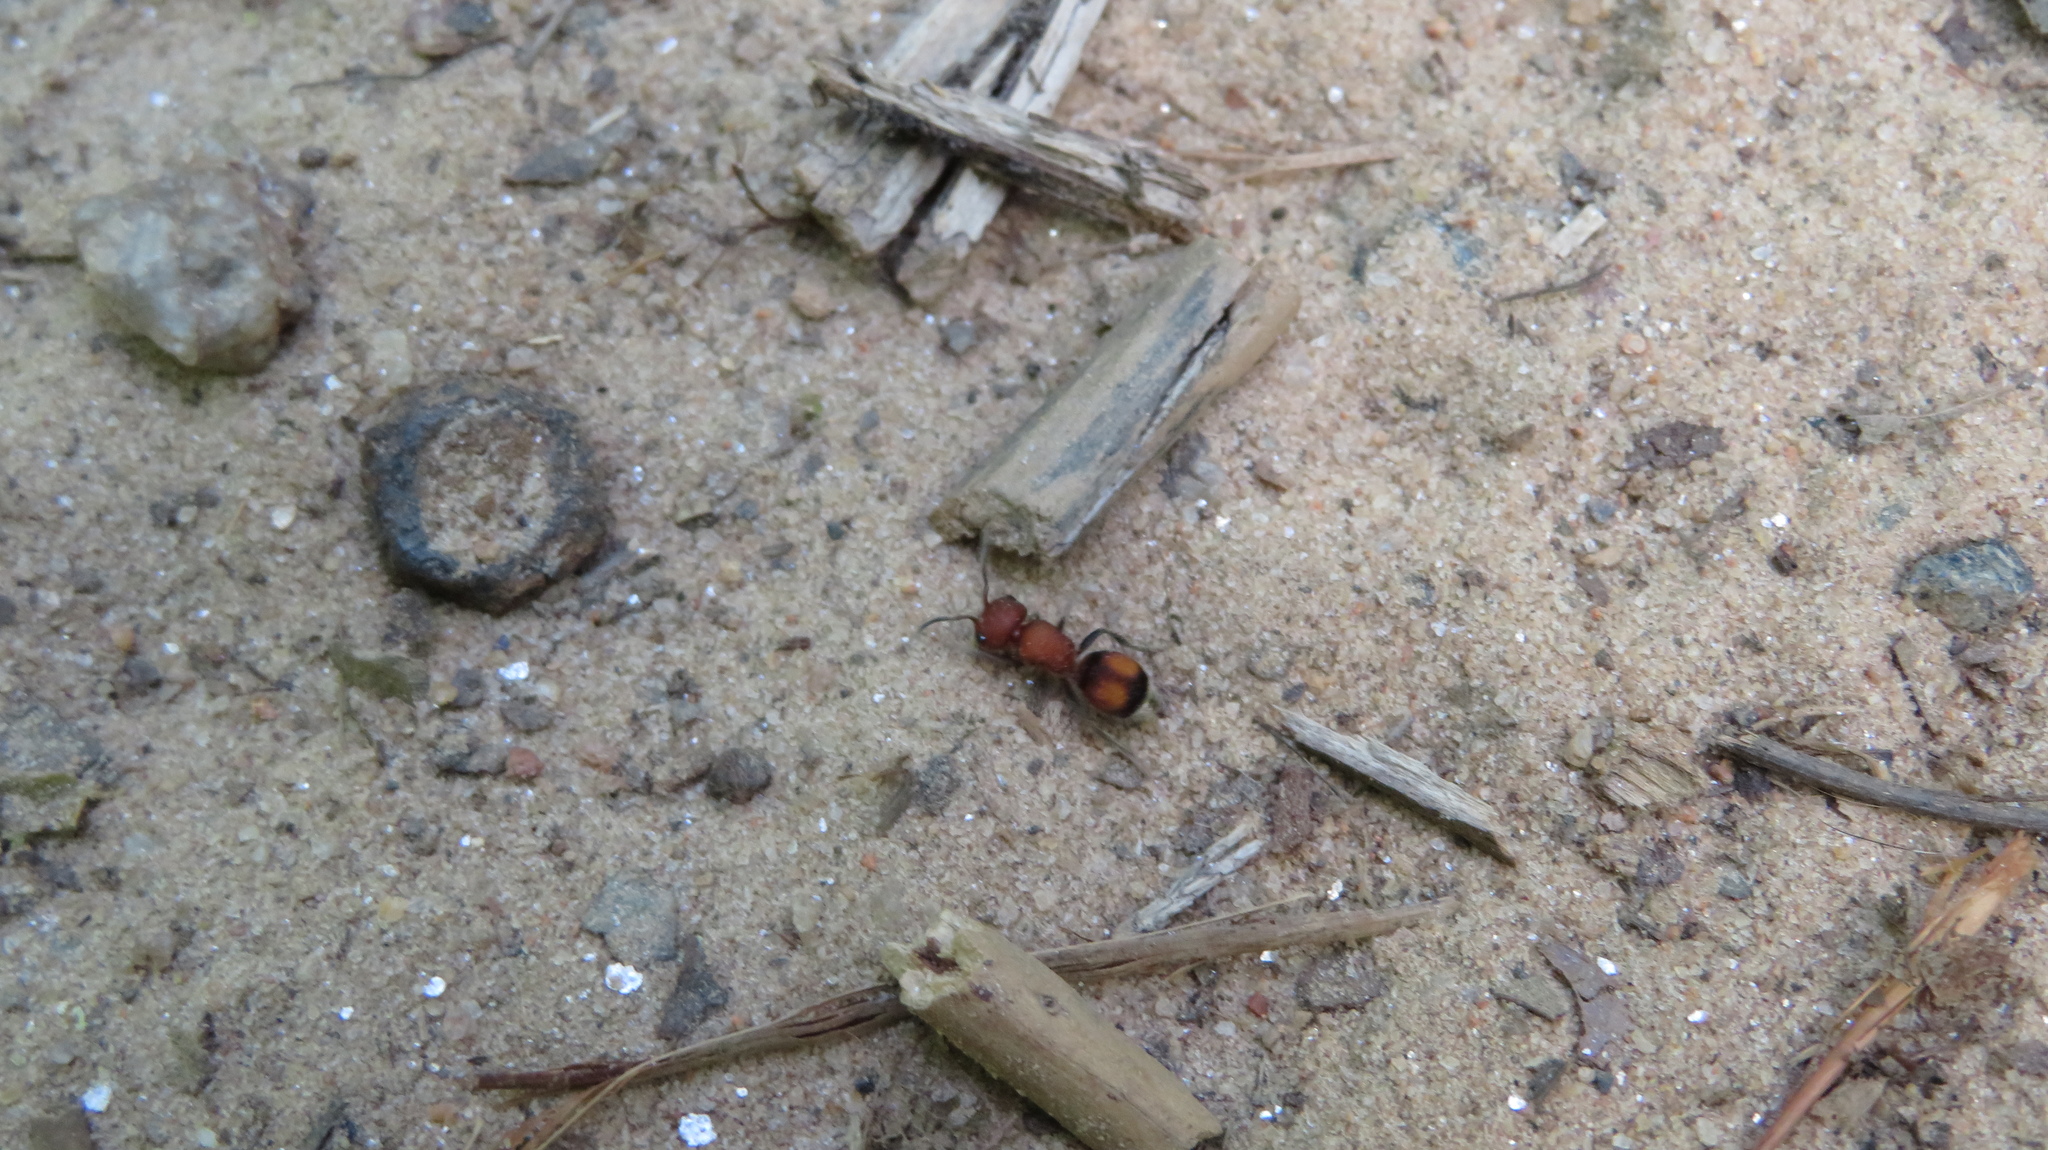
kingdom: Animalia
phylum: Arthropoda
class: Insecta
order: Hymenoptera
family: Mutillidae
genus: Pseudomethoca
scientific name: Pseudomethoca
